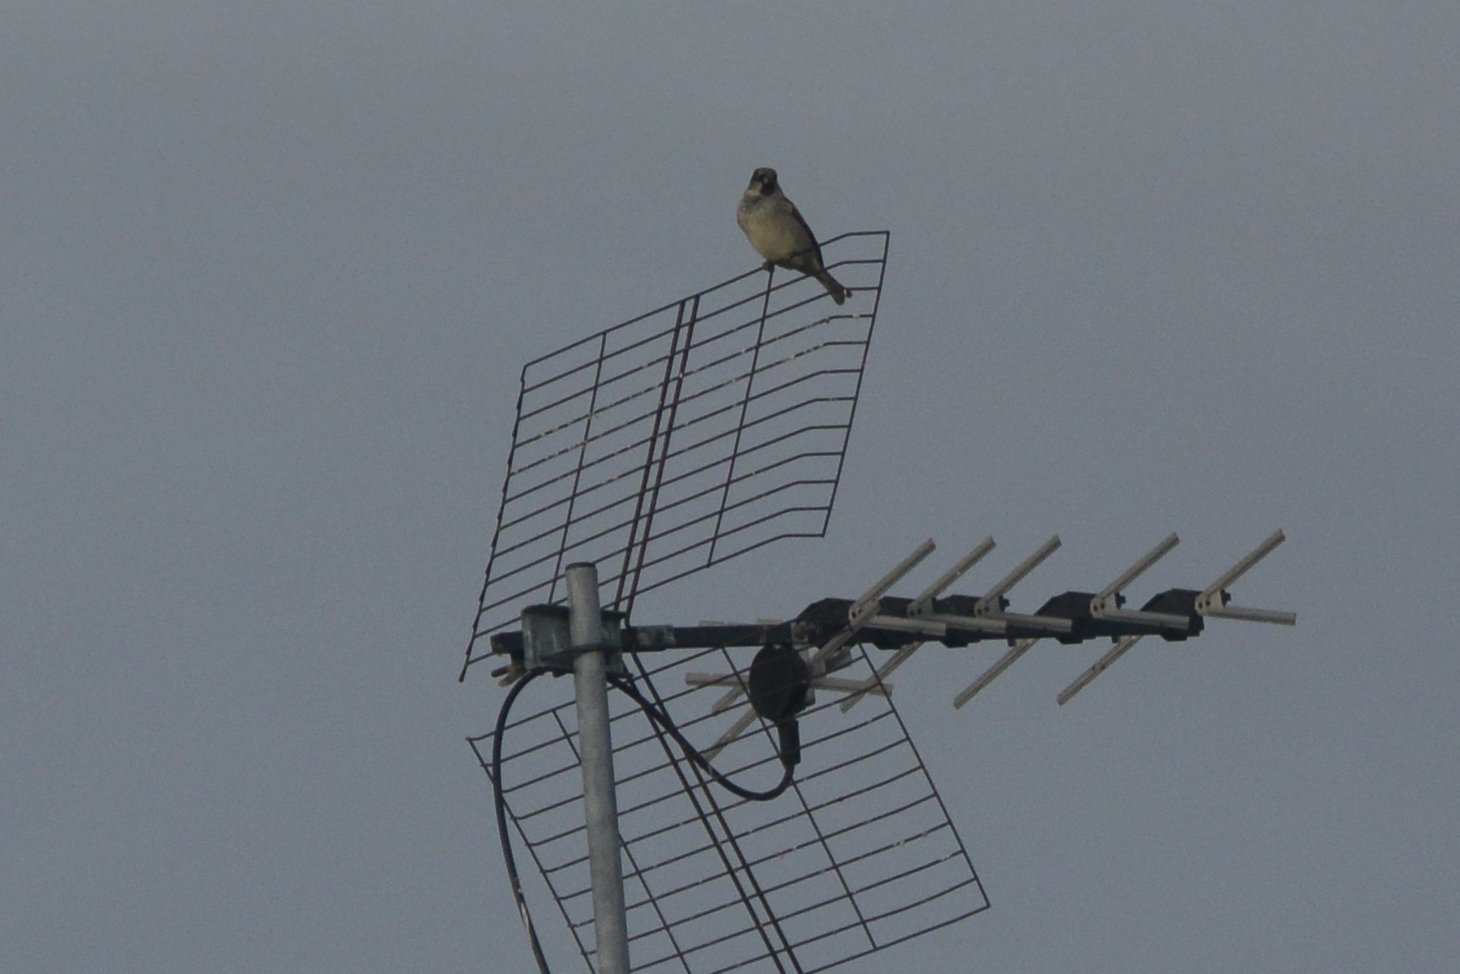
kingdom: Animalia
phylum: Chordata
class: Aves
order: Passeriformes
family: Passeridae
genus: Passer
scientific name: Passer domesticus
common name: House sparrow
